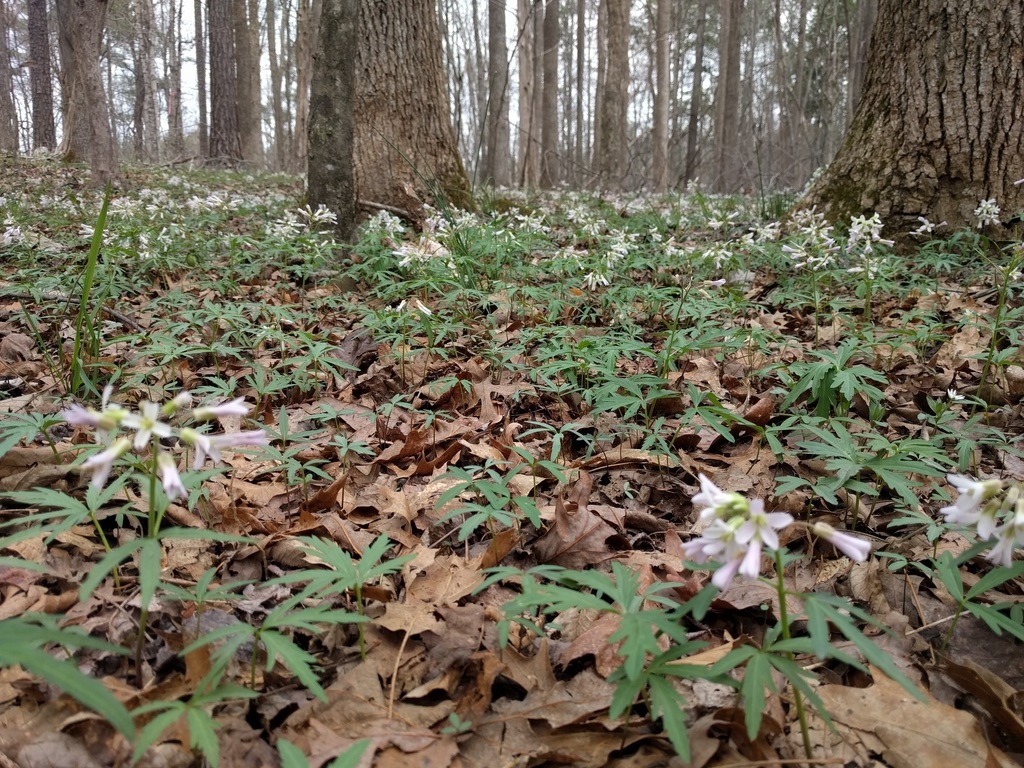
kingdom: Plantae
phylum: Tracheophyta
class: Magnoliopsida
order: Brassicales
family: Brassicaceae
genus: Cardamine
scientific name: Cardamine concatenata
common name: Cut-leaf toothcup
